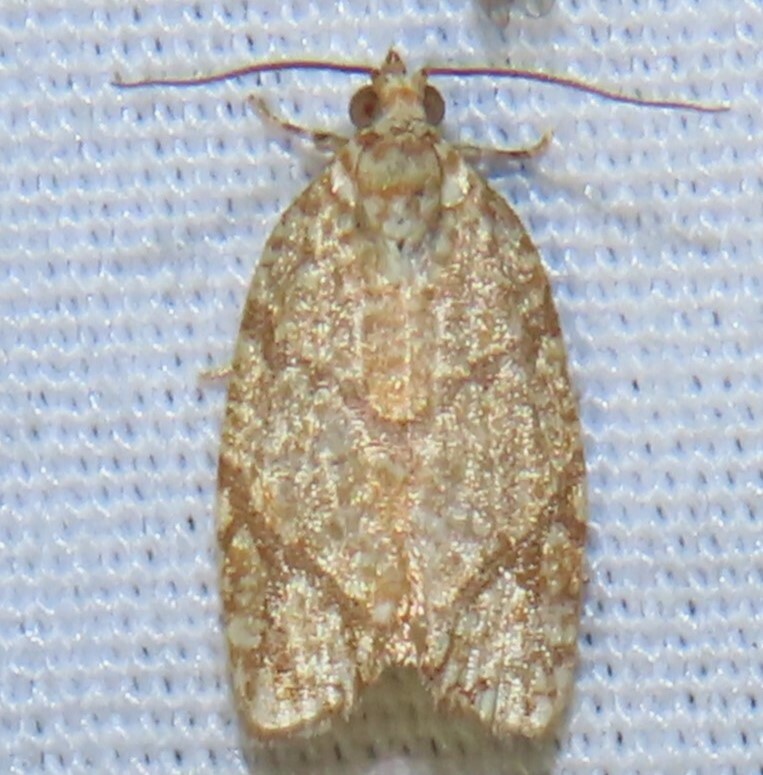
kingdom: Animalia
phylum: Arthropoda
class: Insecta
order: Lepidoptera
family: Tortricidae
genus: Argyrotaenia
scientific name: Argyrotaenia quercifoliana
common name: Yellow-winged oak leafroller moth
